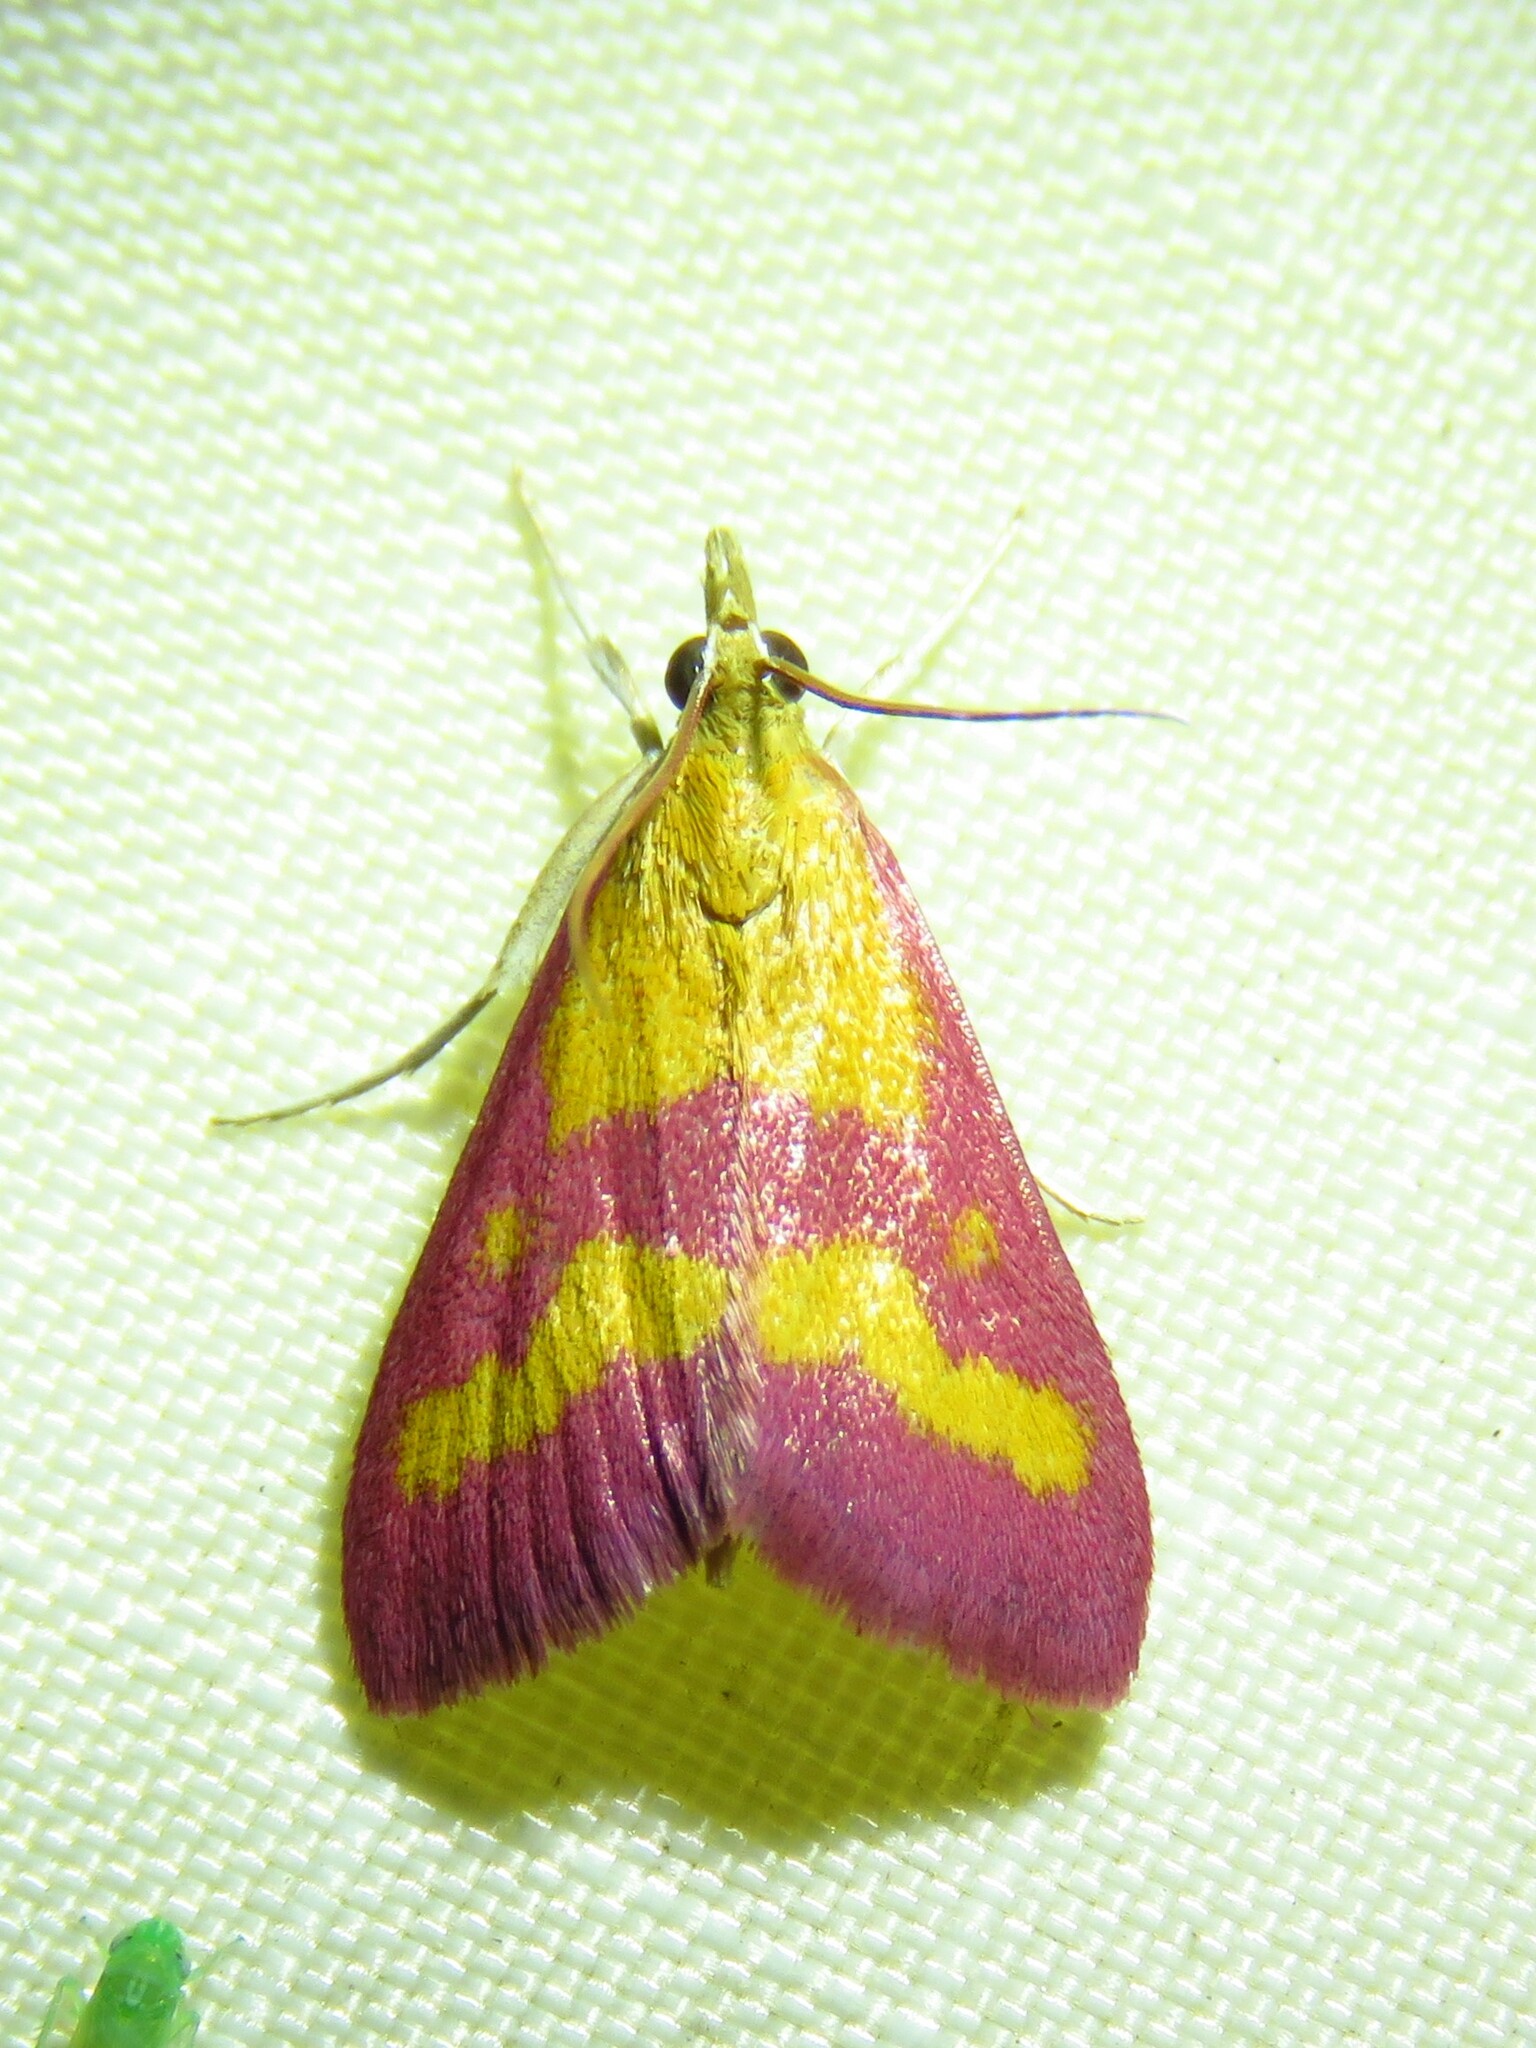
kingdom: Animalia
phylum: Arthropoda
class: Insecta
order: Lepidoptera
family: Crambidae
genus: Pyrausta
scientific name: Pyrausta laticlavia
